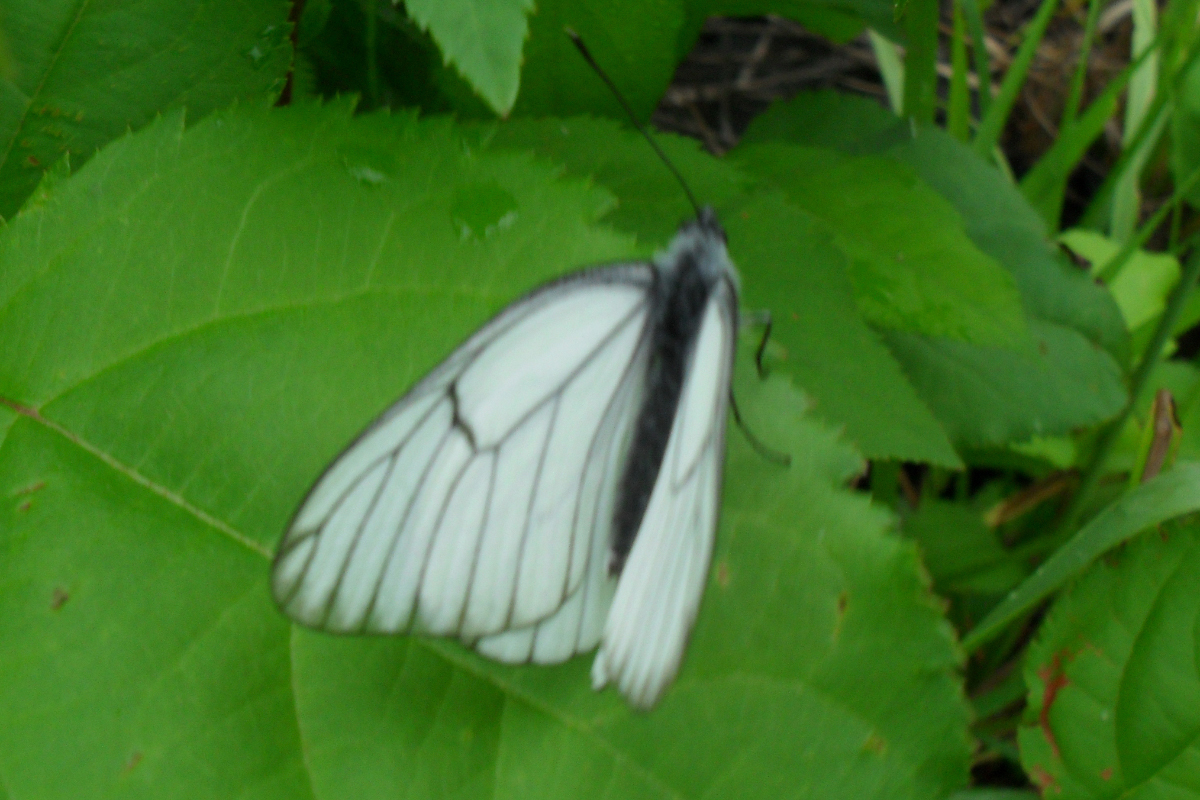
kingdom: Animalia
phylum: Arthropoda
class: Insecta
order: Lepidoptera
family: Pieridae
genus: Aporia
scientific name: Aporia crataegi
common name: Black-veined white
